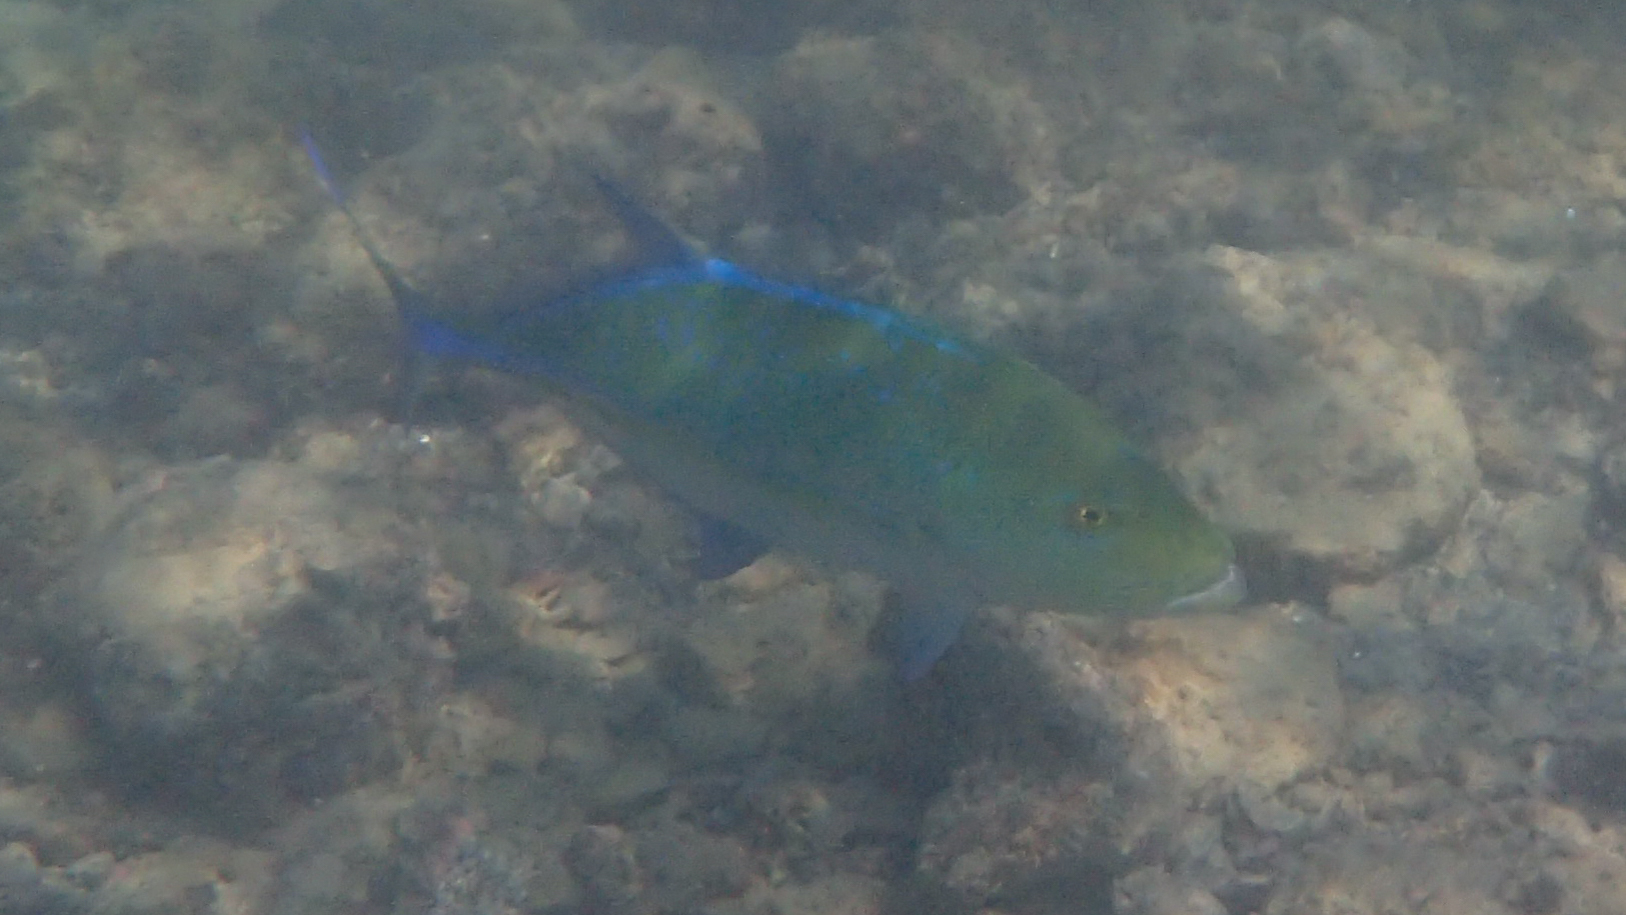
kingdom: Animalia
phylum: Chordata
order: Perciformes
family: Carangidae
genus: Caranx
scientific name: Caranx melampygus
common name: Bluefin trevally
